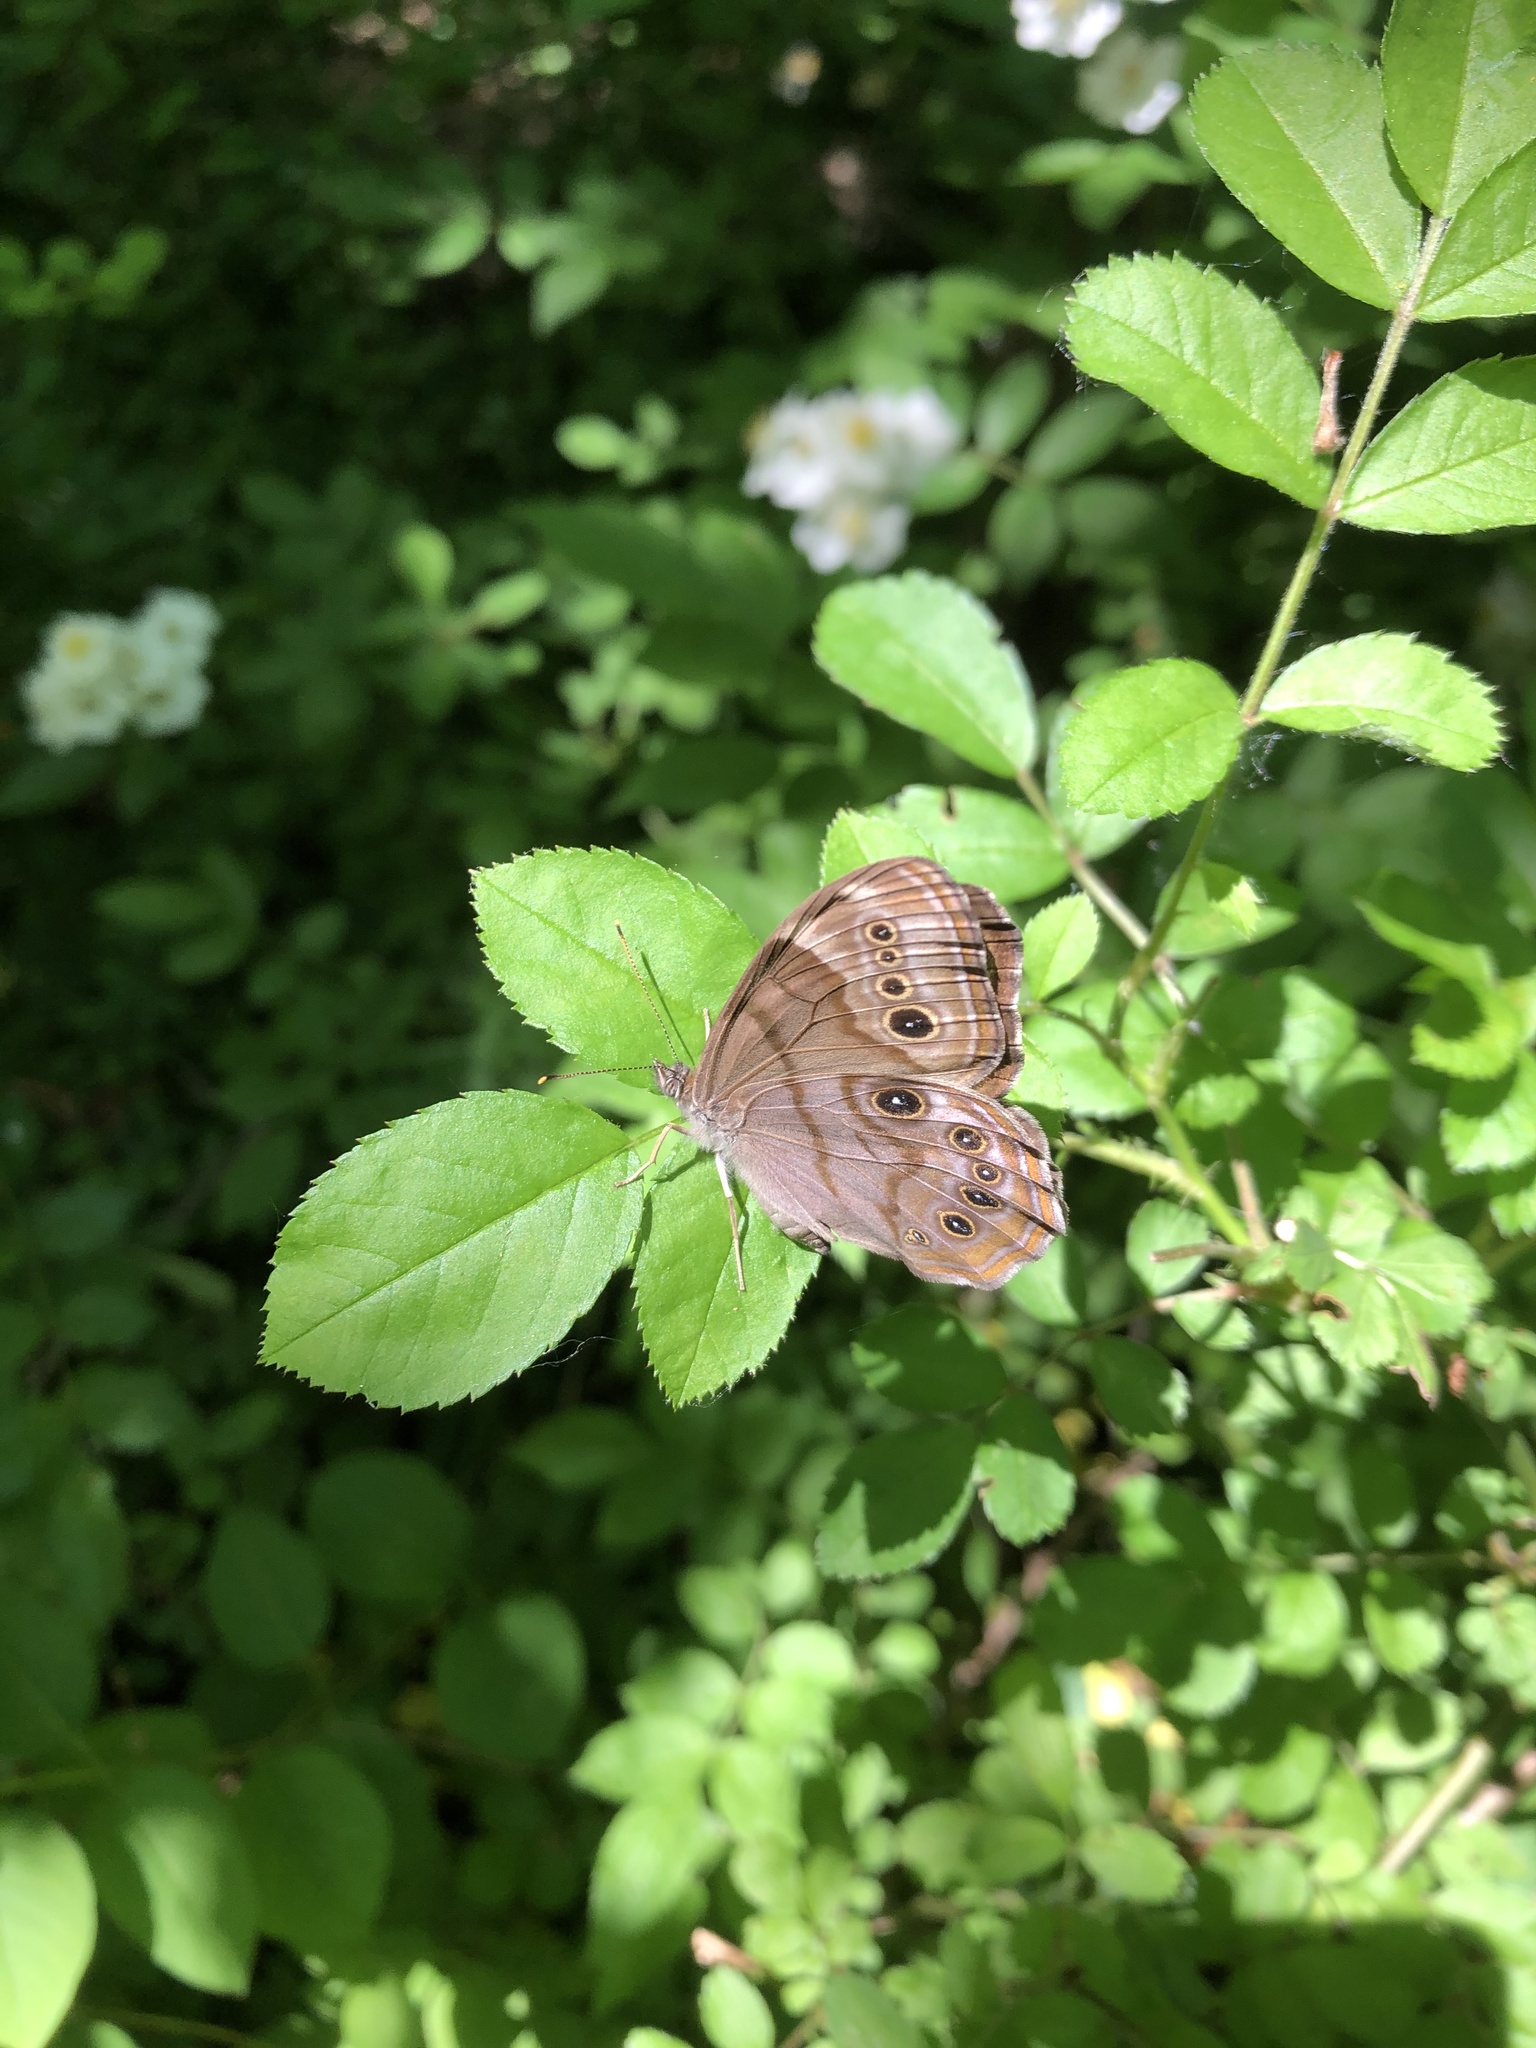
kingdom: Animalia
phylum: Arthropoda
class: Insecta
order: Lepidoptera
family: Nymphalidae
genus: Lethe
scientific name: Lethe anthedon
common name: Northern pearly-eye
